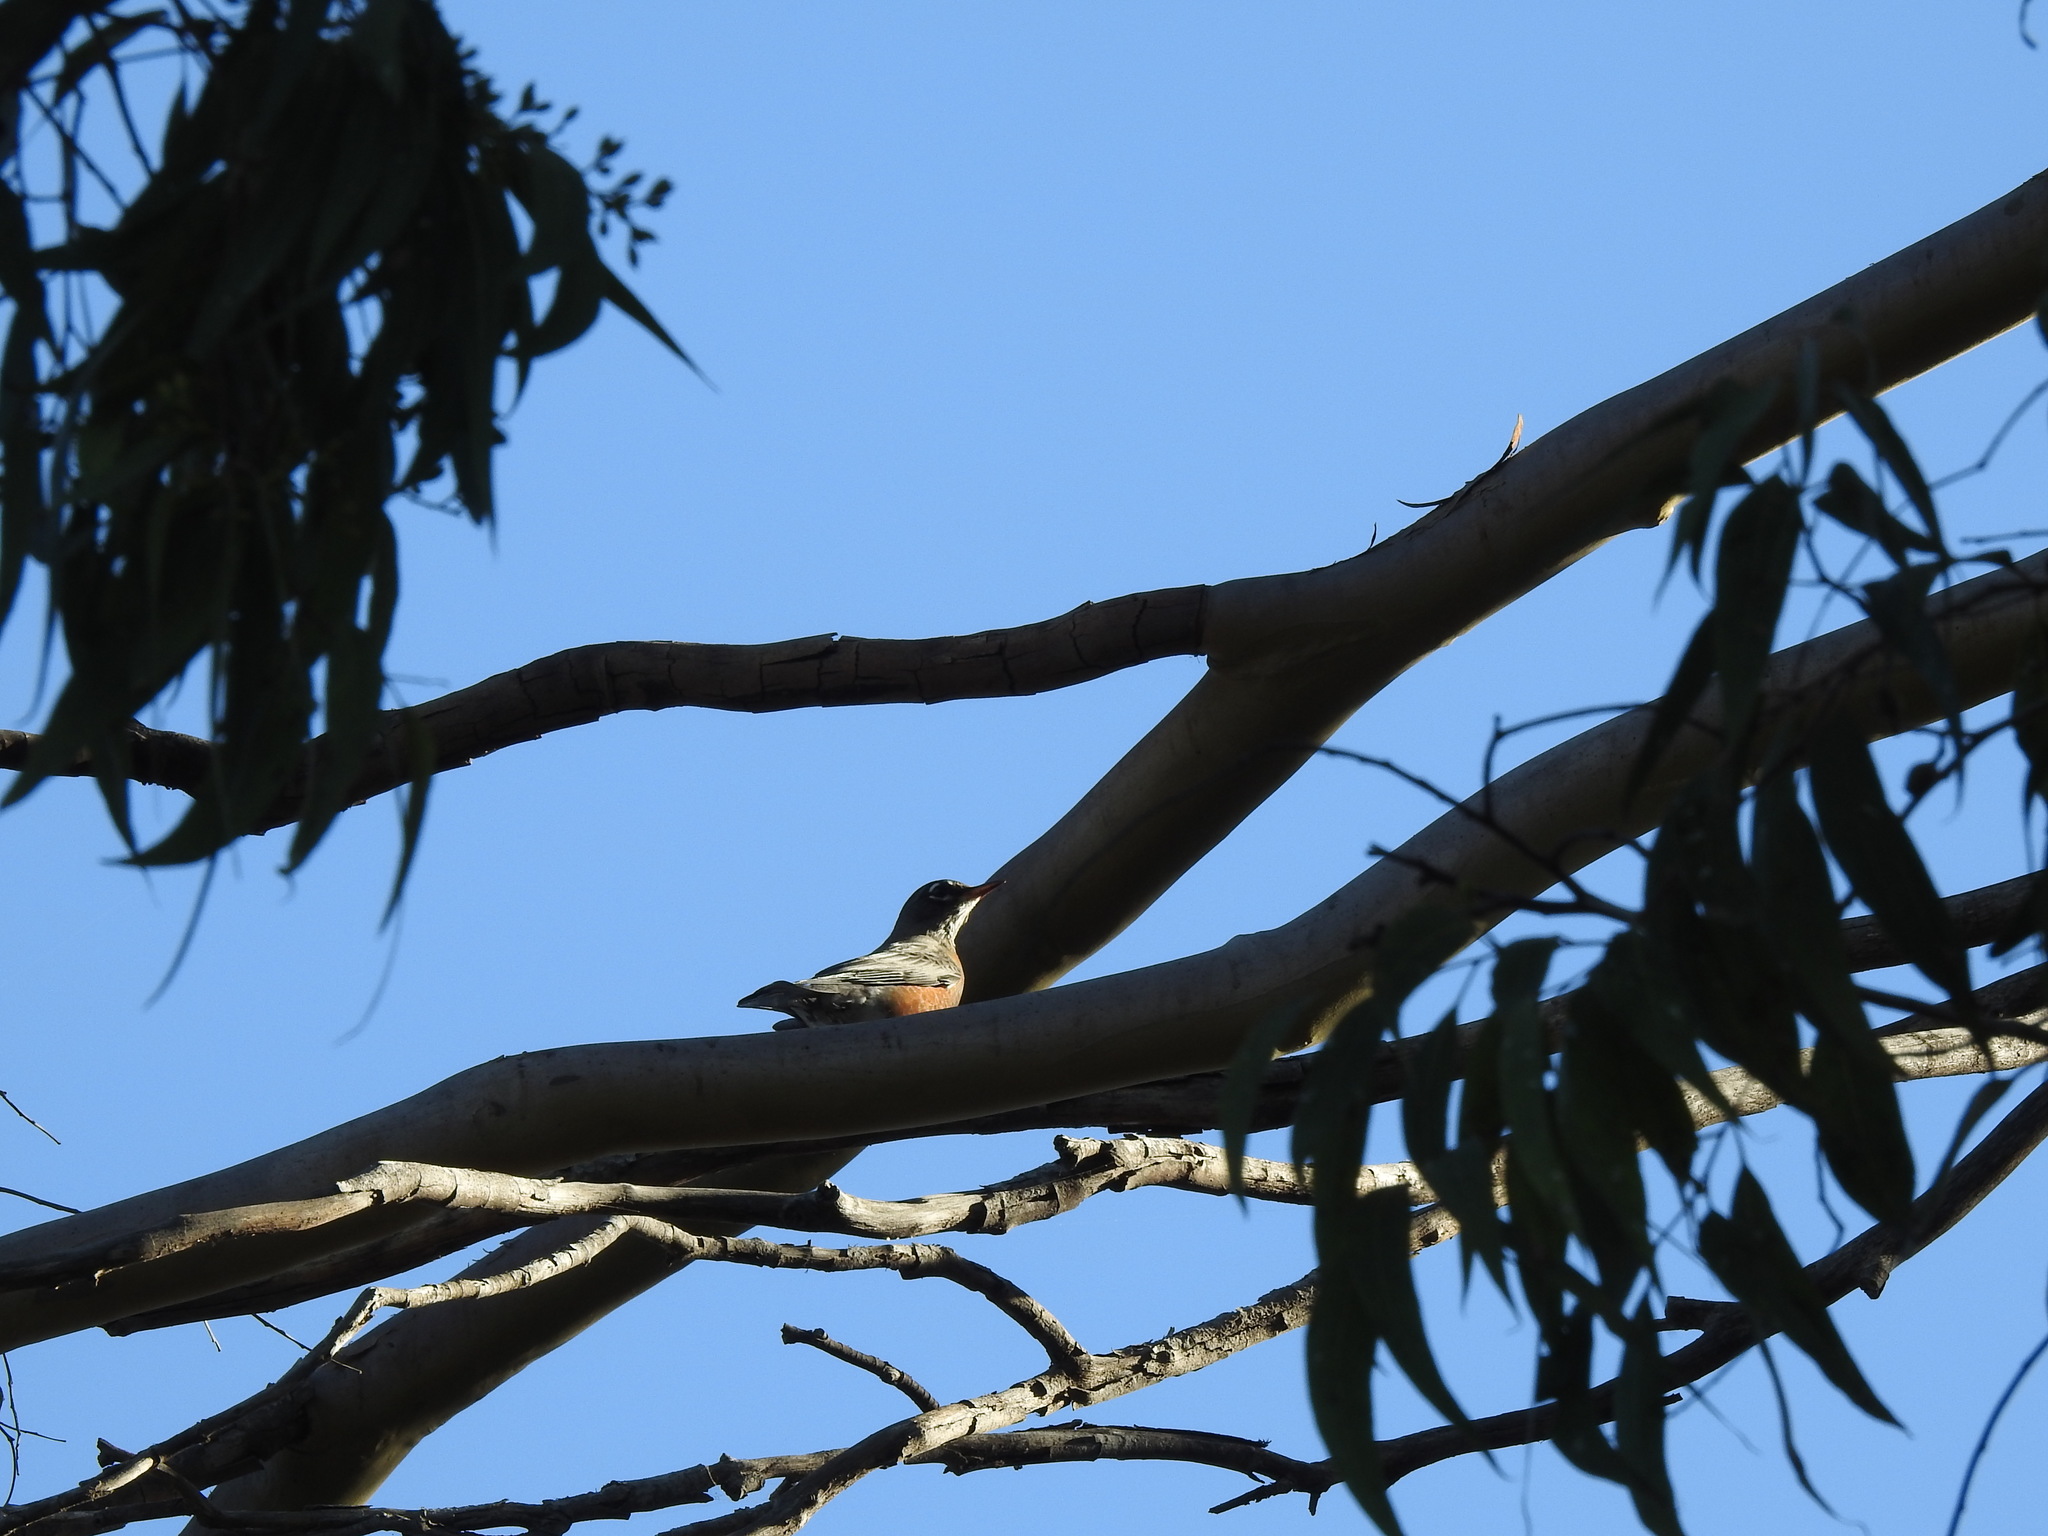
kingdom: Animalia
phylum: Chordata
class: Aves
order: Passeriformes
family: Turdidae
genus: Turdus
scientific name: Turdus migratorius
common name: American robin
